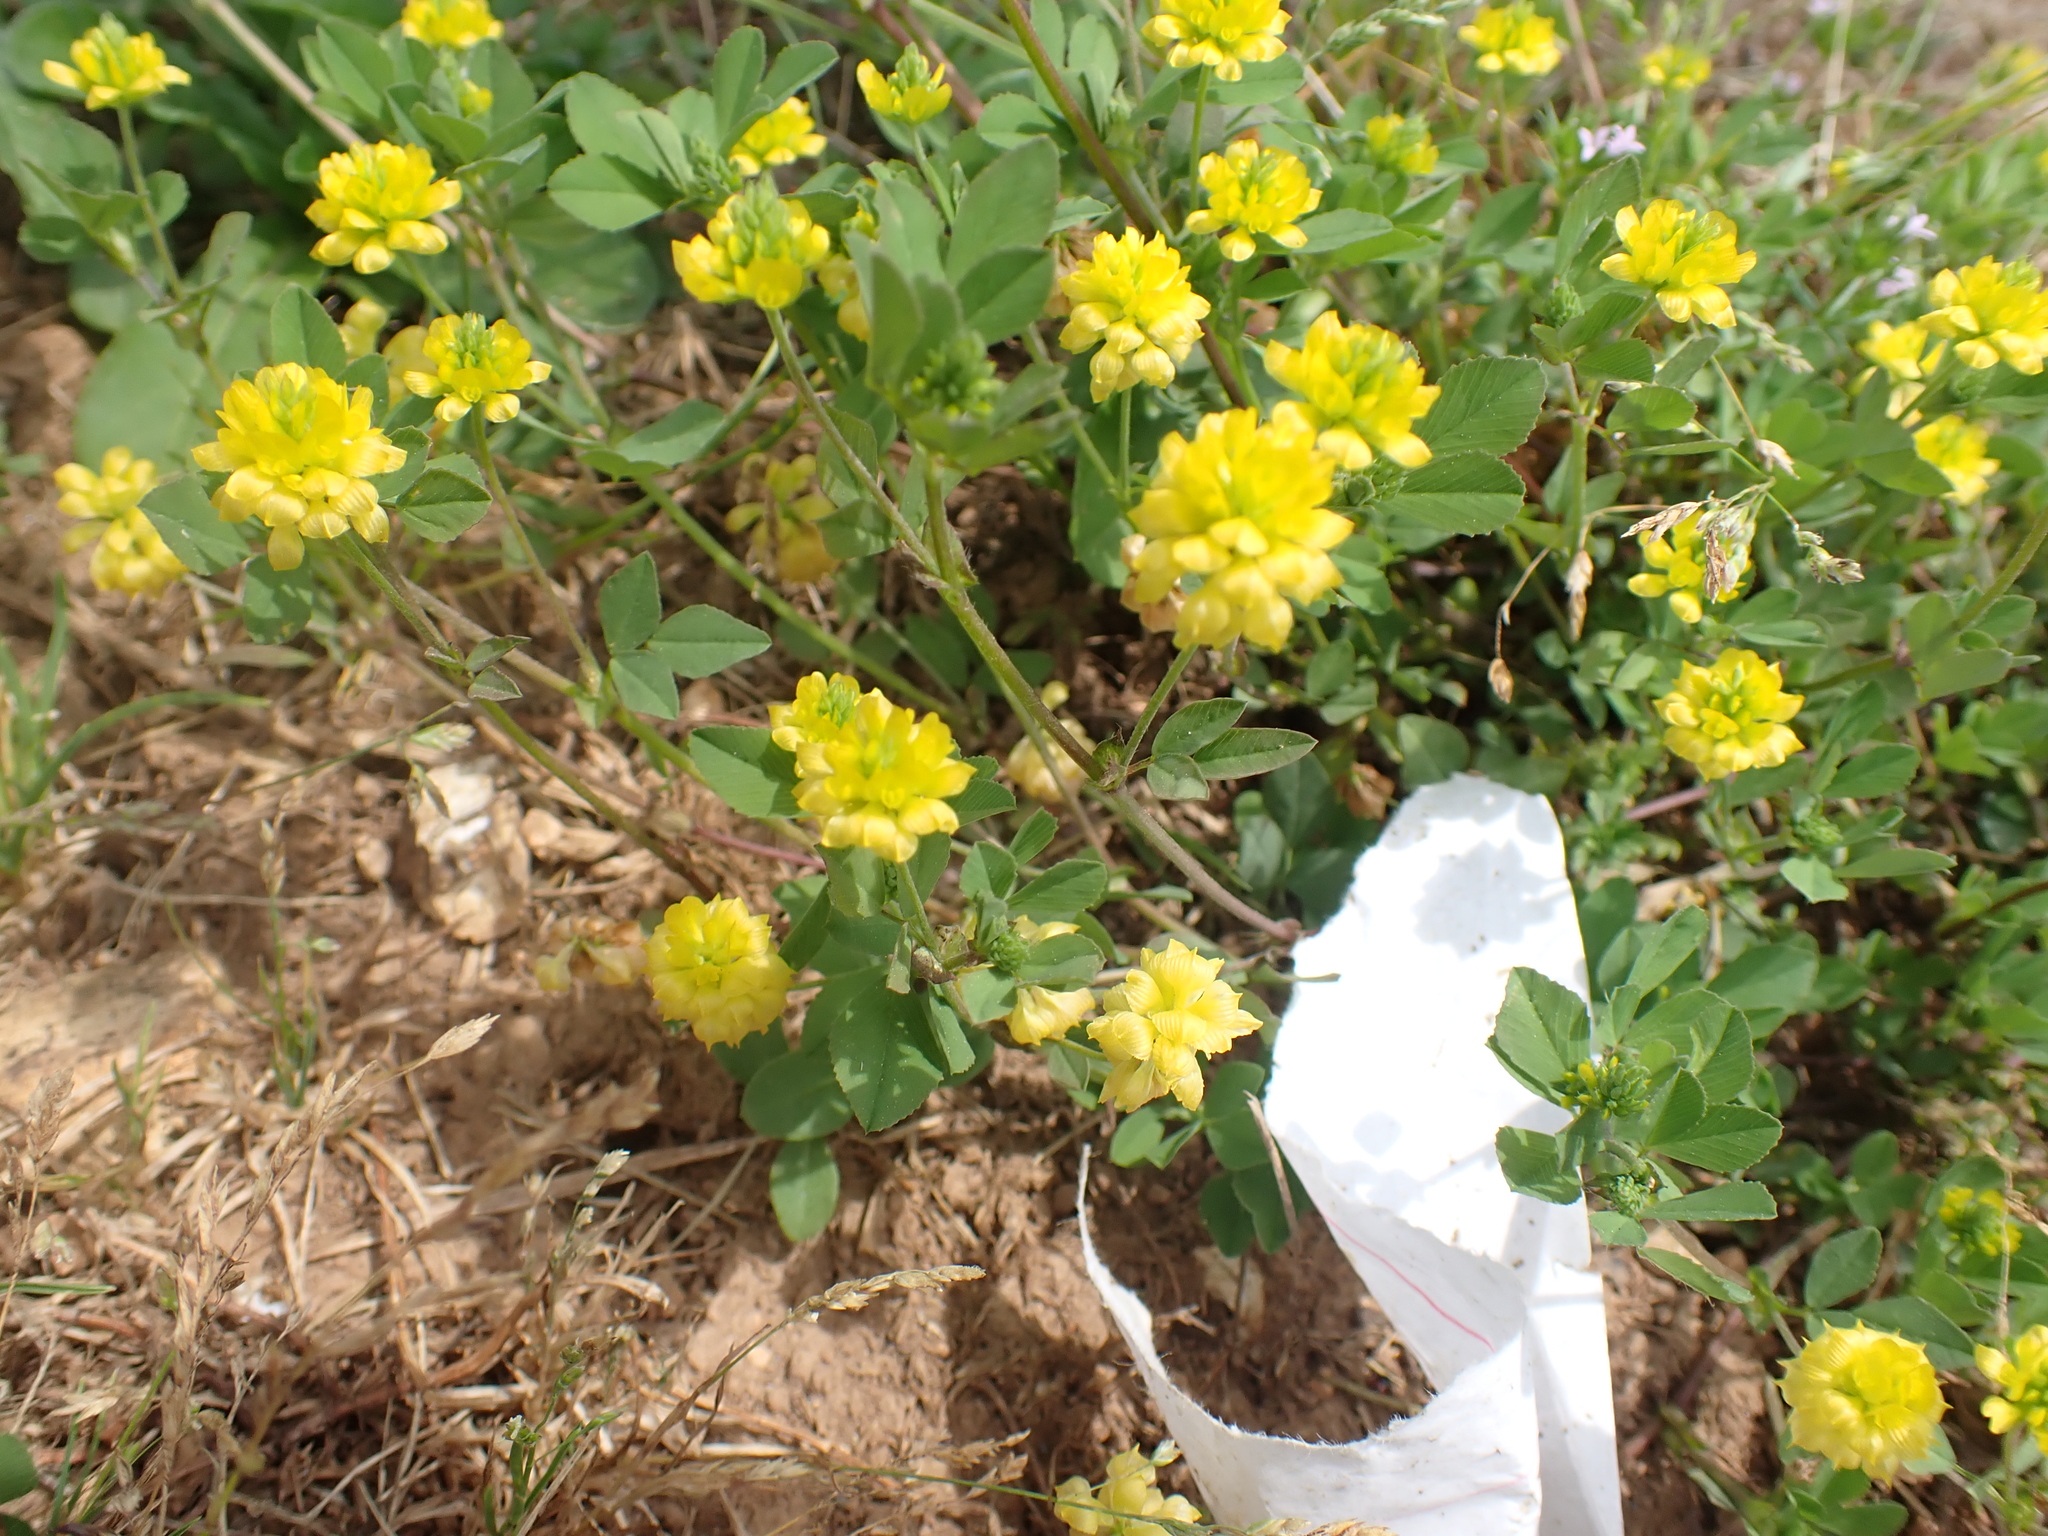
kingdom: Plantae
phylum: Tracheophyta
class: Magnoliopsida
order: Fabales
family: Fabaceae
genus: Trifolium
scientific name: Trifolium campestre
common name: Field clover
